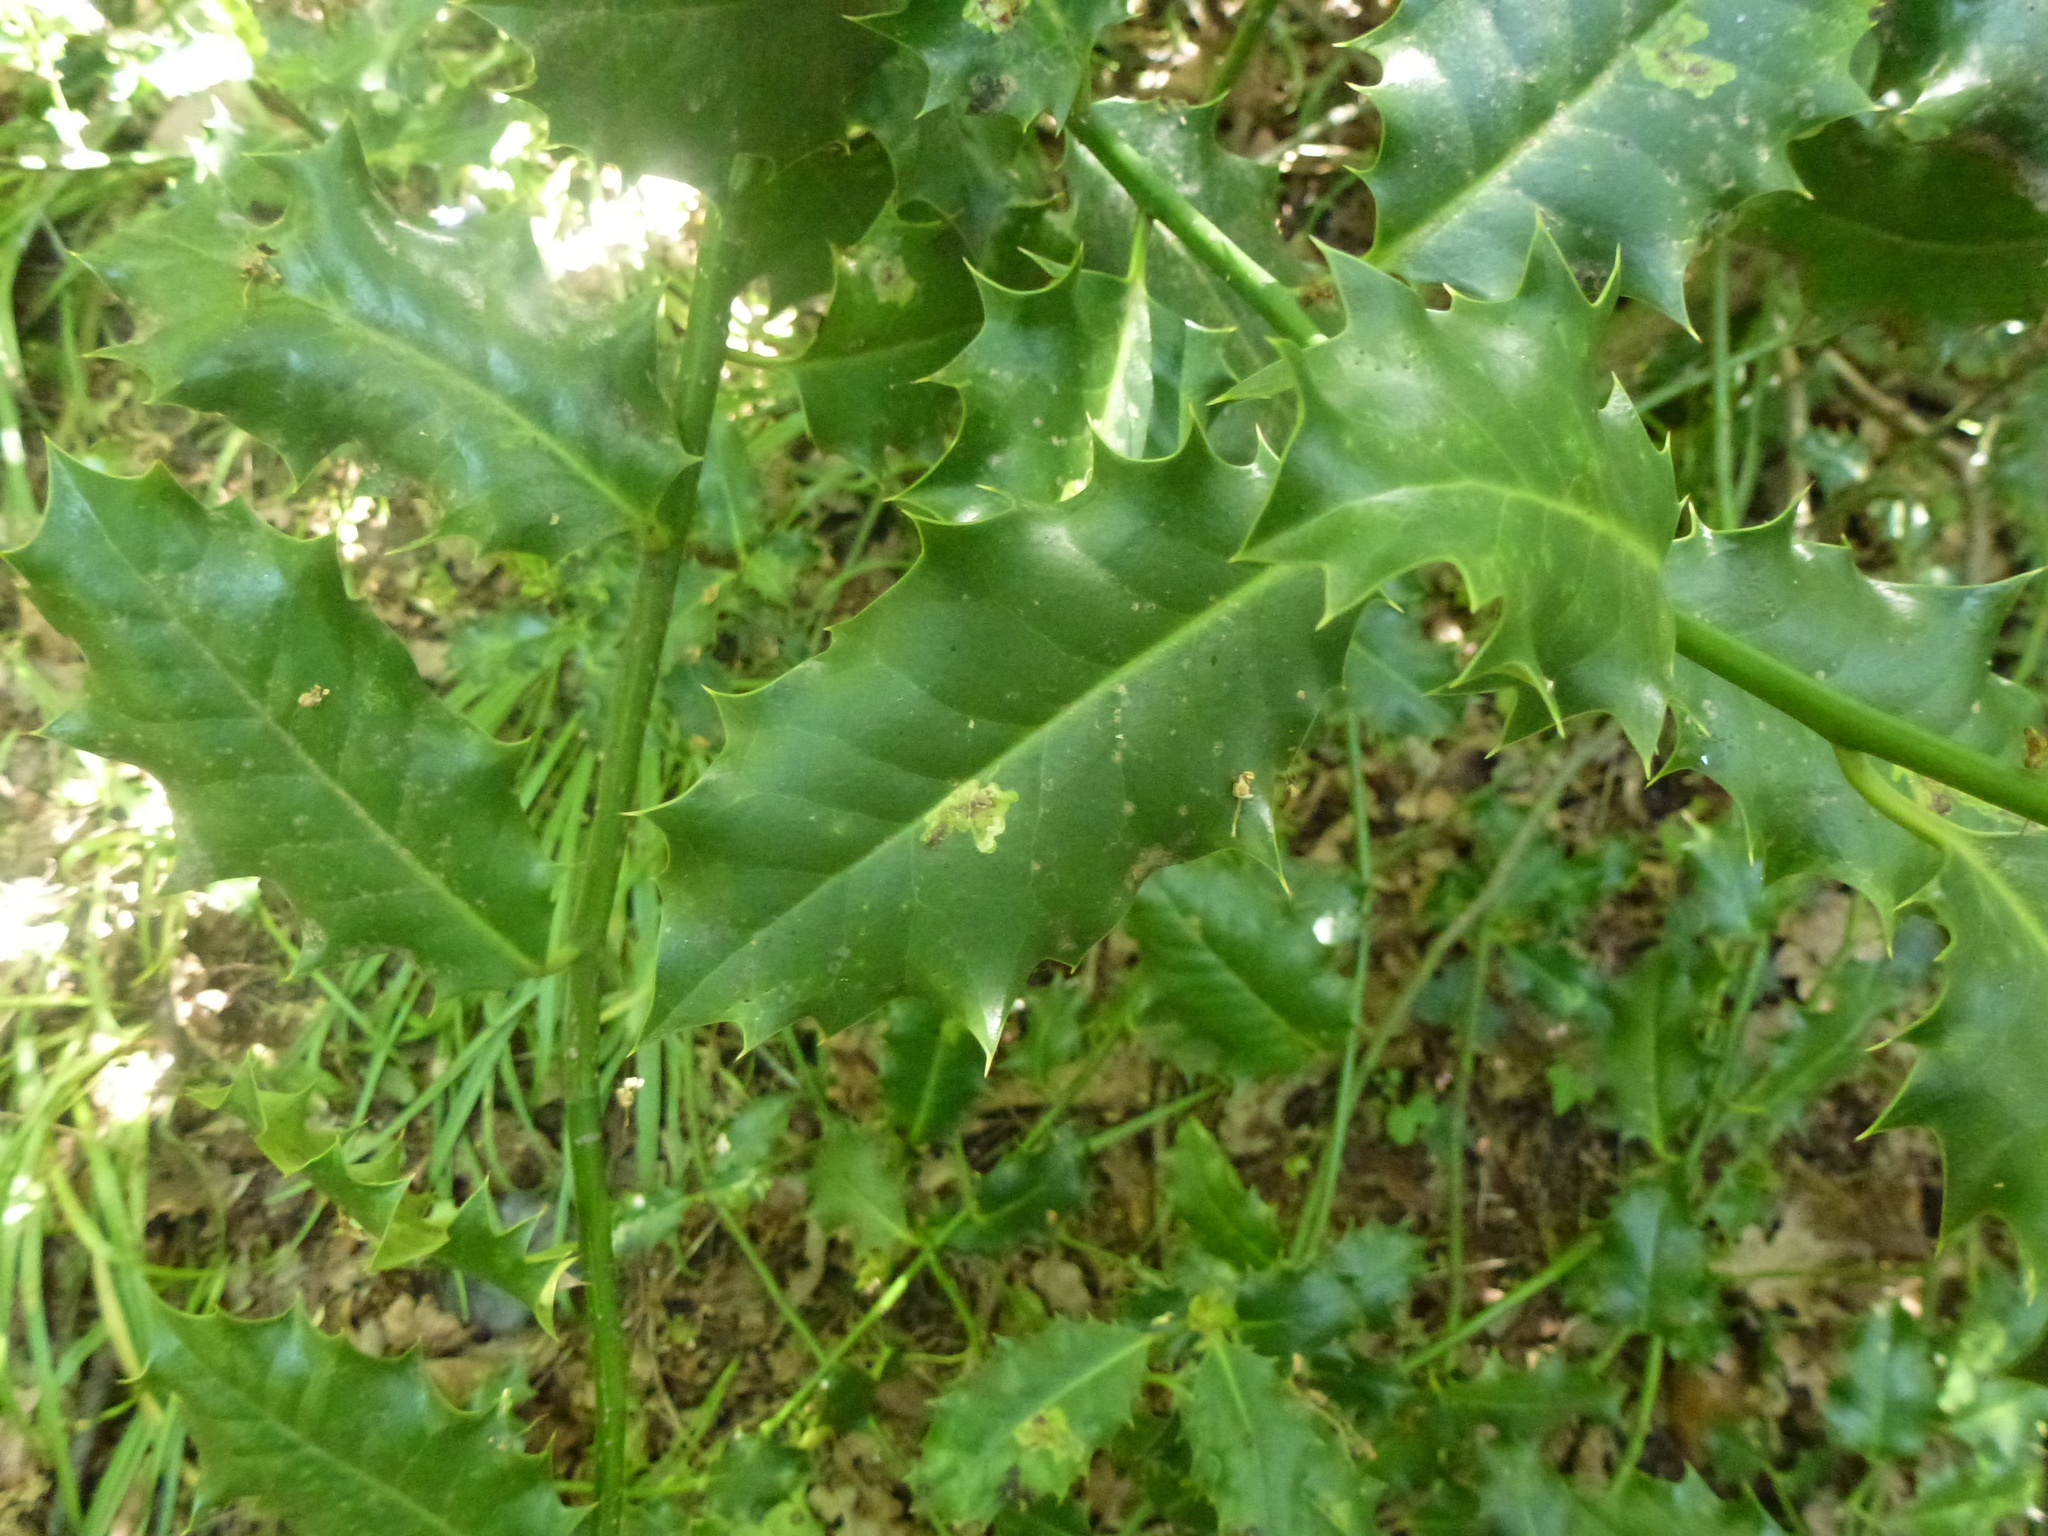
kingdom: Animalia
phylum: Arthropoda
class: Insecta
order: Diptera
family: Agromyzidae
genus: Phytomyza
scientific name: Phytomyza ilicis
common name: Holly leafminer
